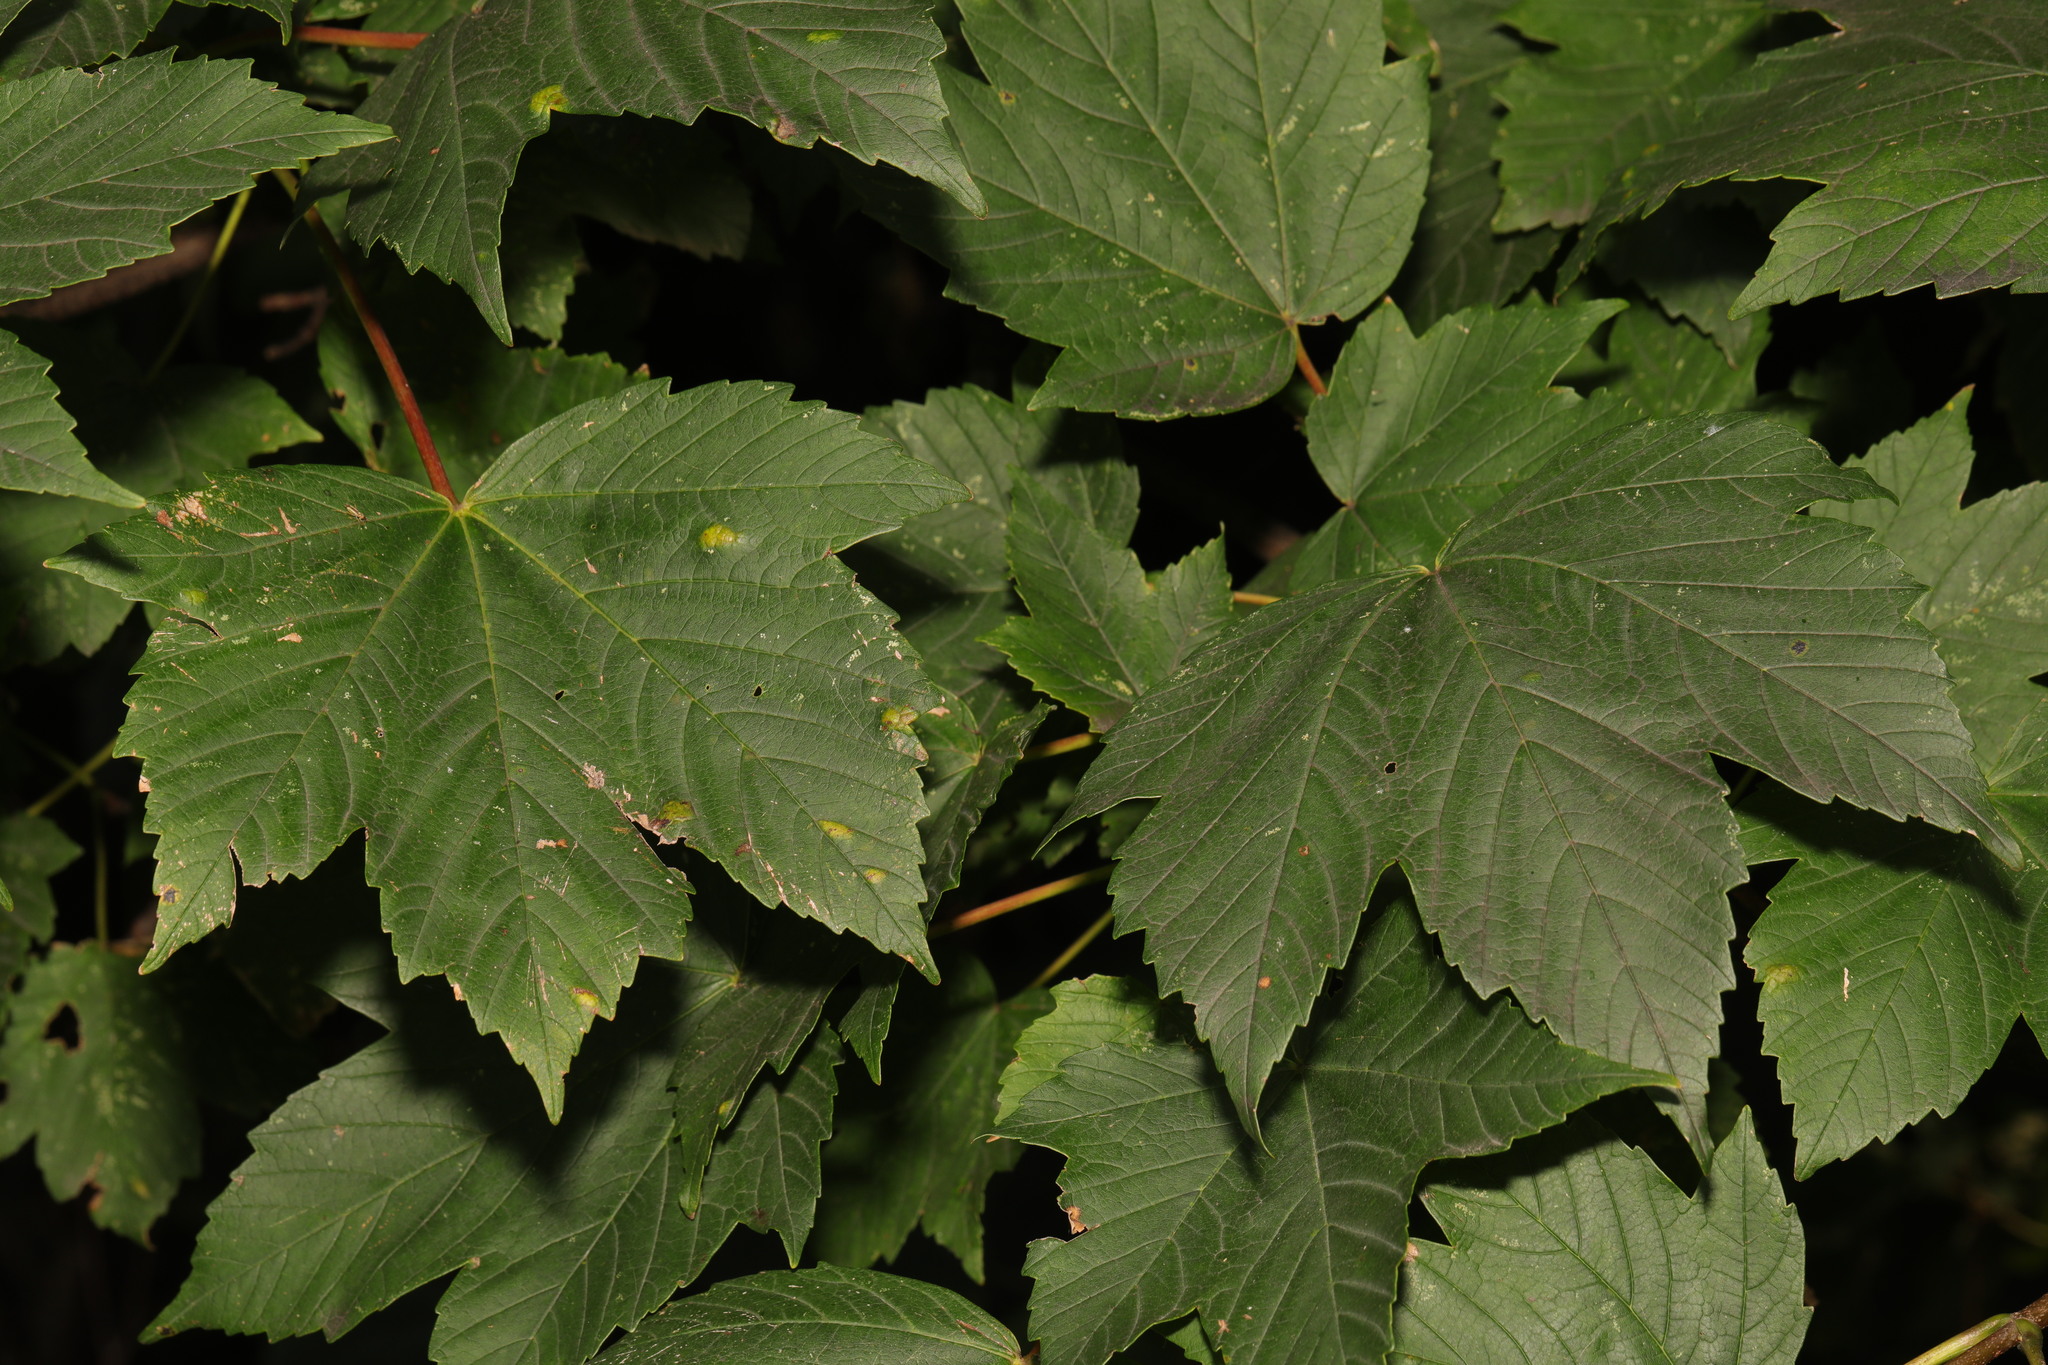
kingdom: Plantae
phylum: Tracheophyta
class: Magnoliopsida
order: Sapindales
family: Sapindaceae
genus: Acer
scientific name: Acer pseudoplatanus
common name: Sycamore
